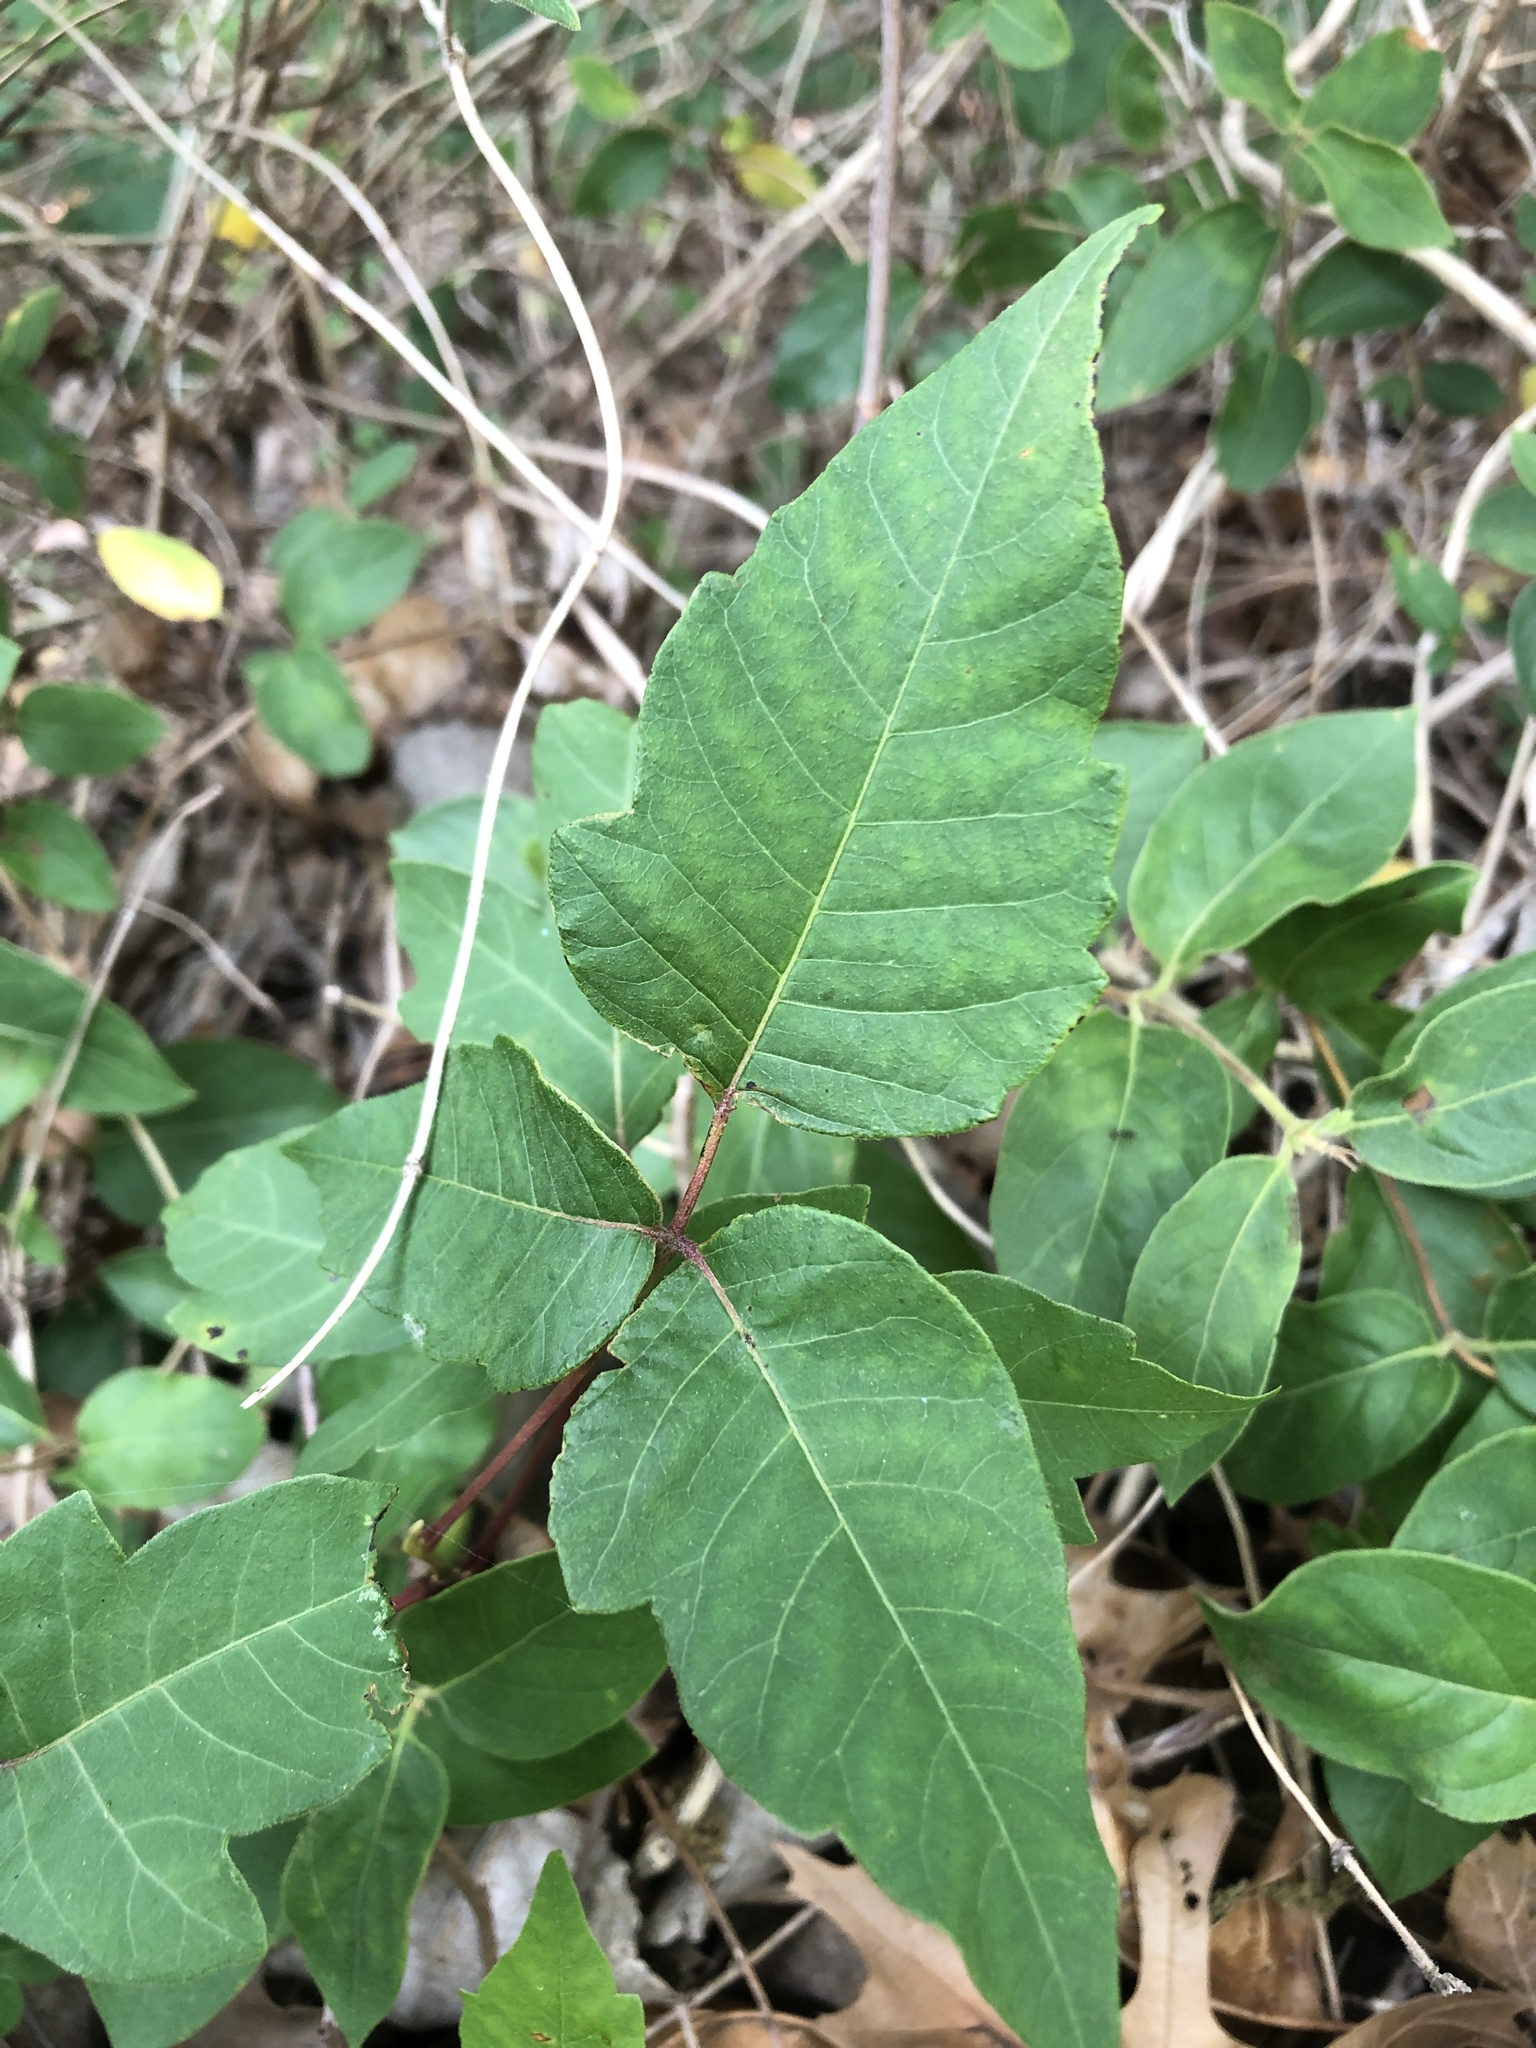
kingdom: Plantae
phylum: Tracheophyta
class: Magnoliopsida
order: Sapindales
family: Anacardiaceae
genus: Toxicodendron
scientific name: Toxicodendron radicans
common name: Poison ivy
